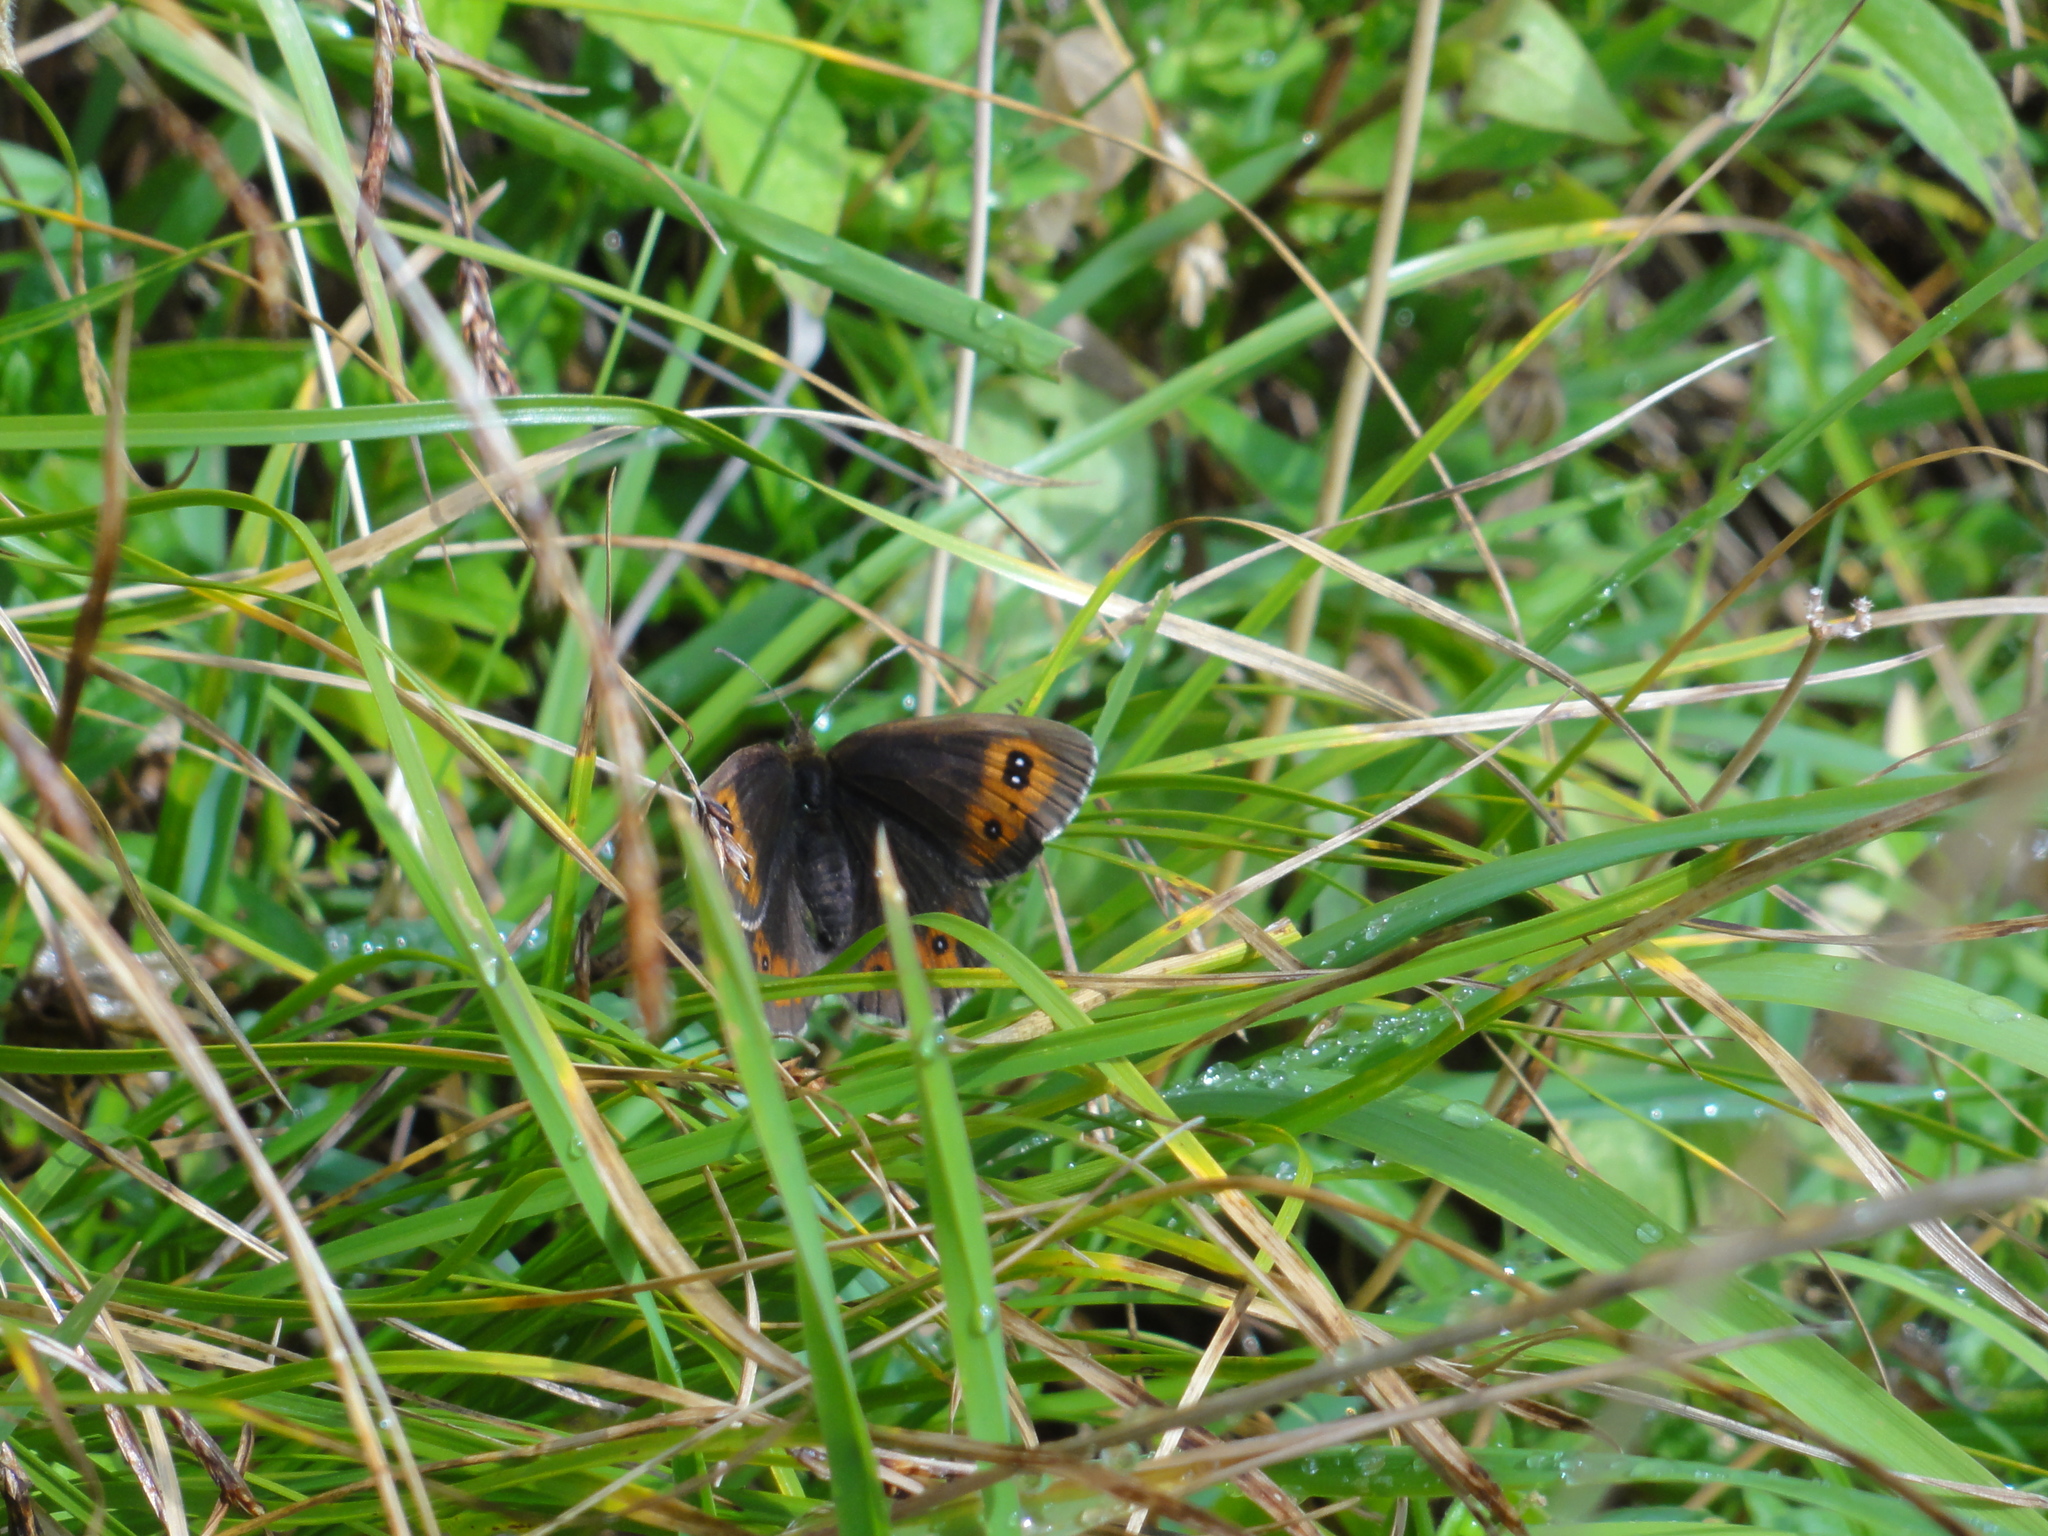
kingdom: Animalia
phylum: Arthropoda
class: Insecta
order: Lepidoptera
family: Nymphalidae
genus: Erebia
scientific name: Erebia aethiops
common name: Scotch argus
